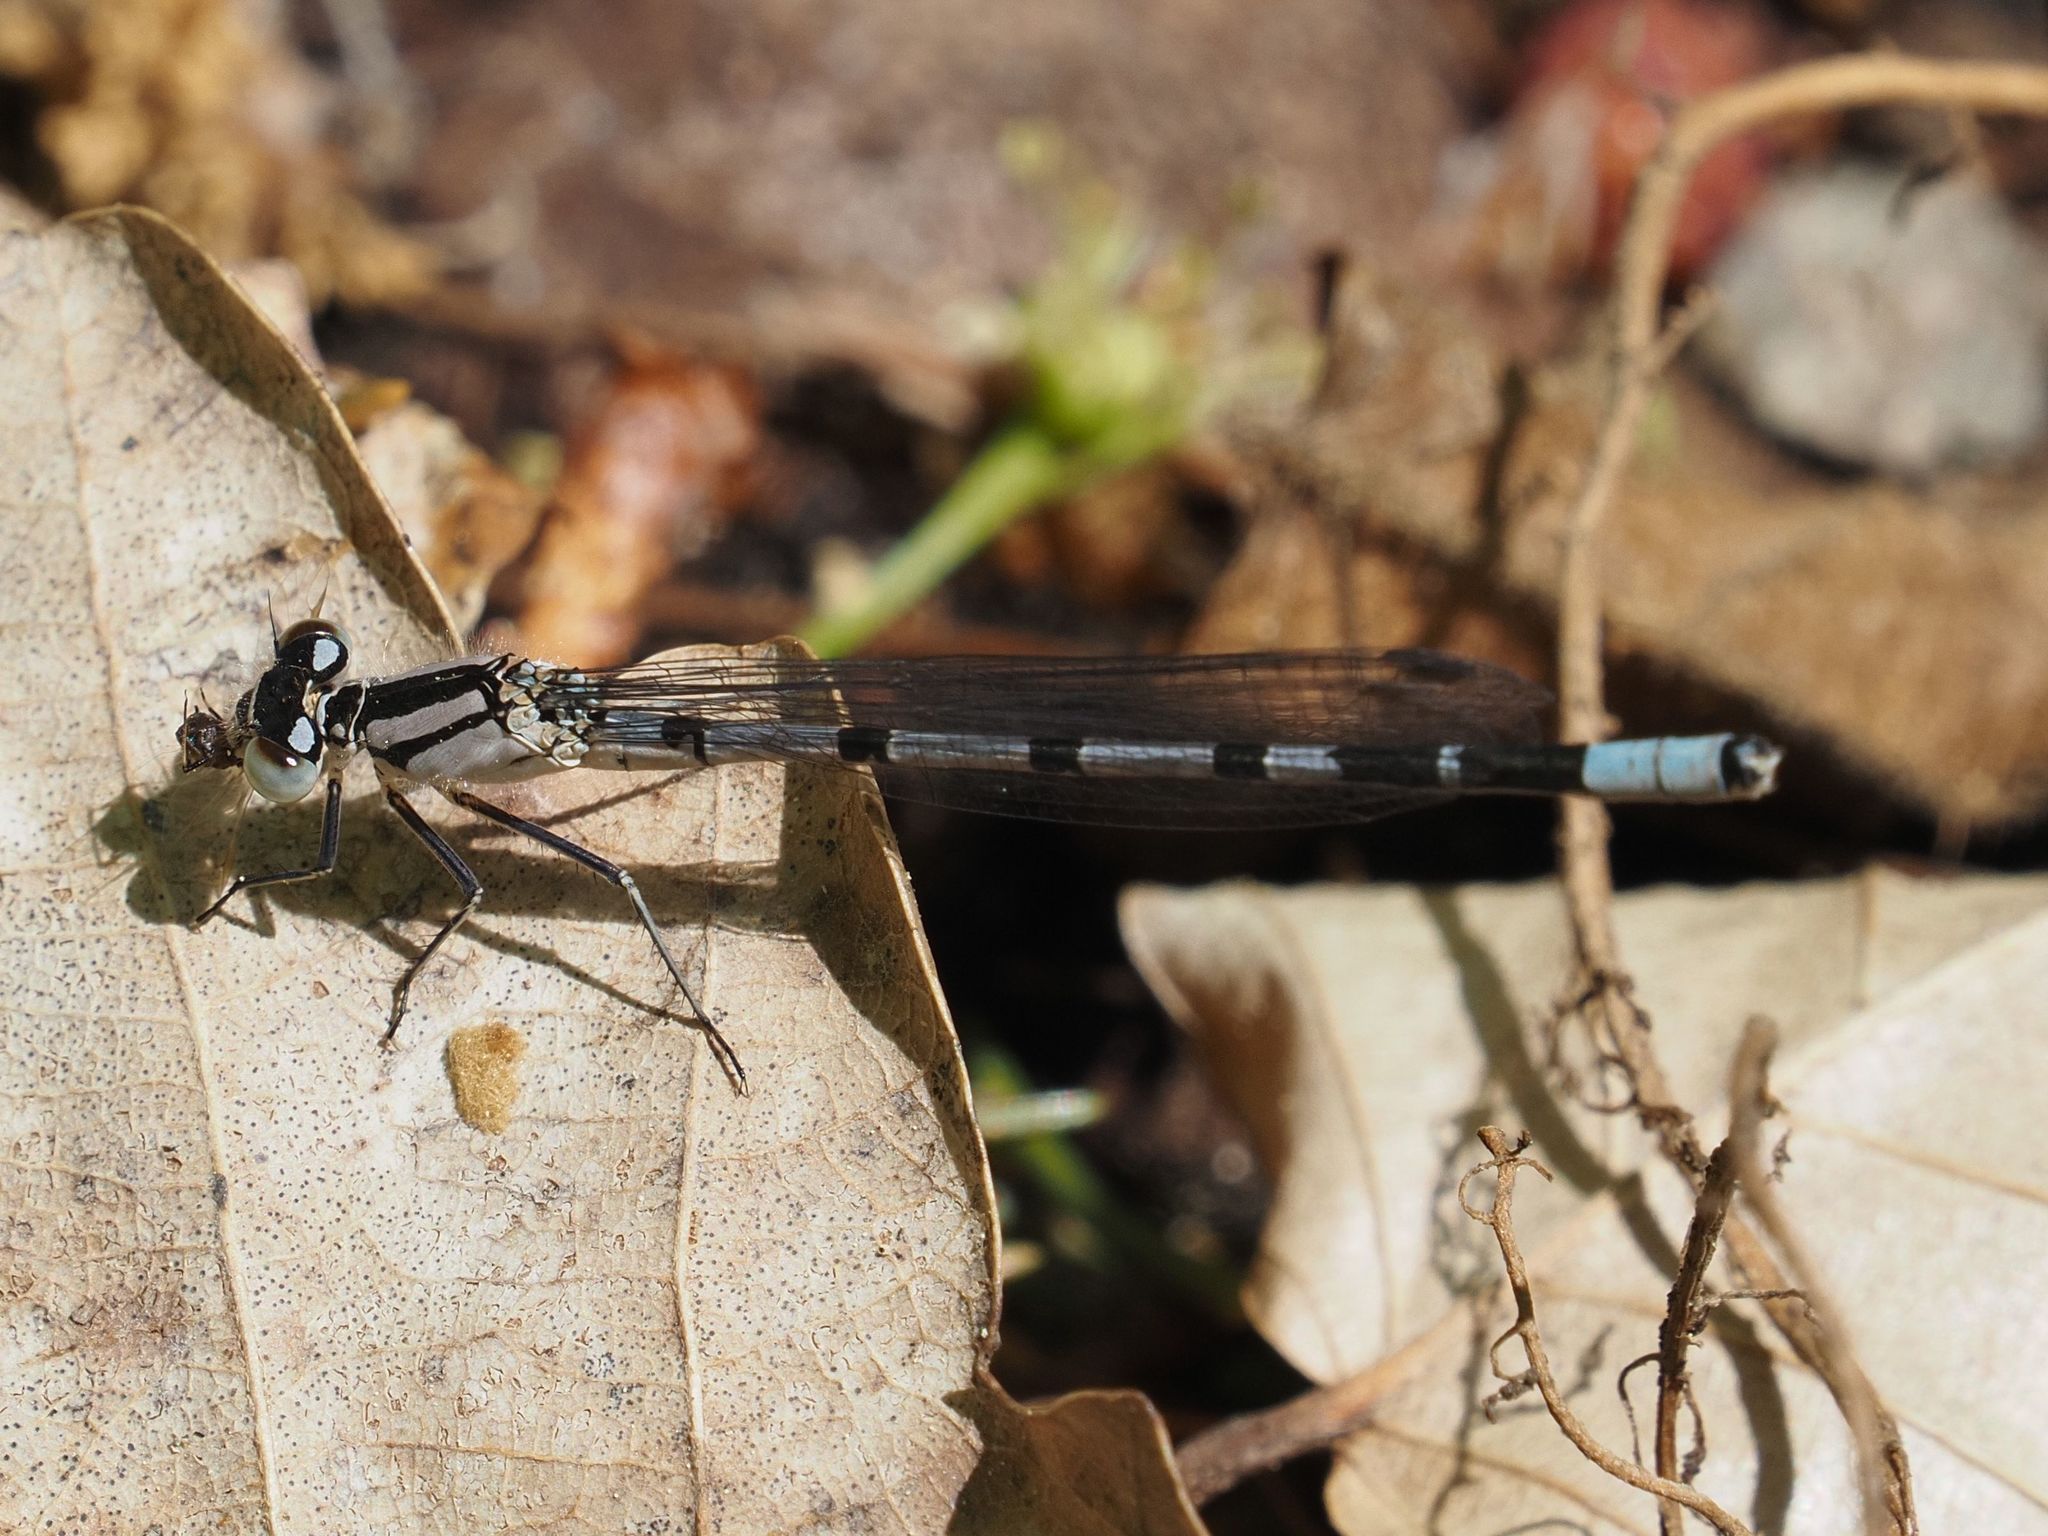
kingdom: Animalia
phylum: Arthropoda
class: Insecta
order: Odonata
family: Coenagrionidae
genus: Enallagma
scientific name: Enallagma cyathigerum
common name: Common blue damselfly
